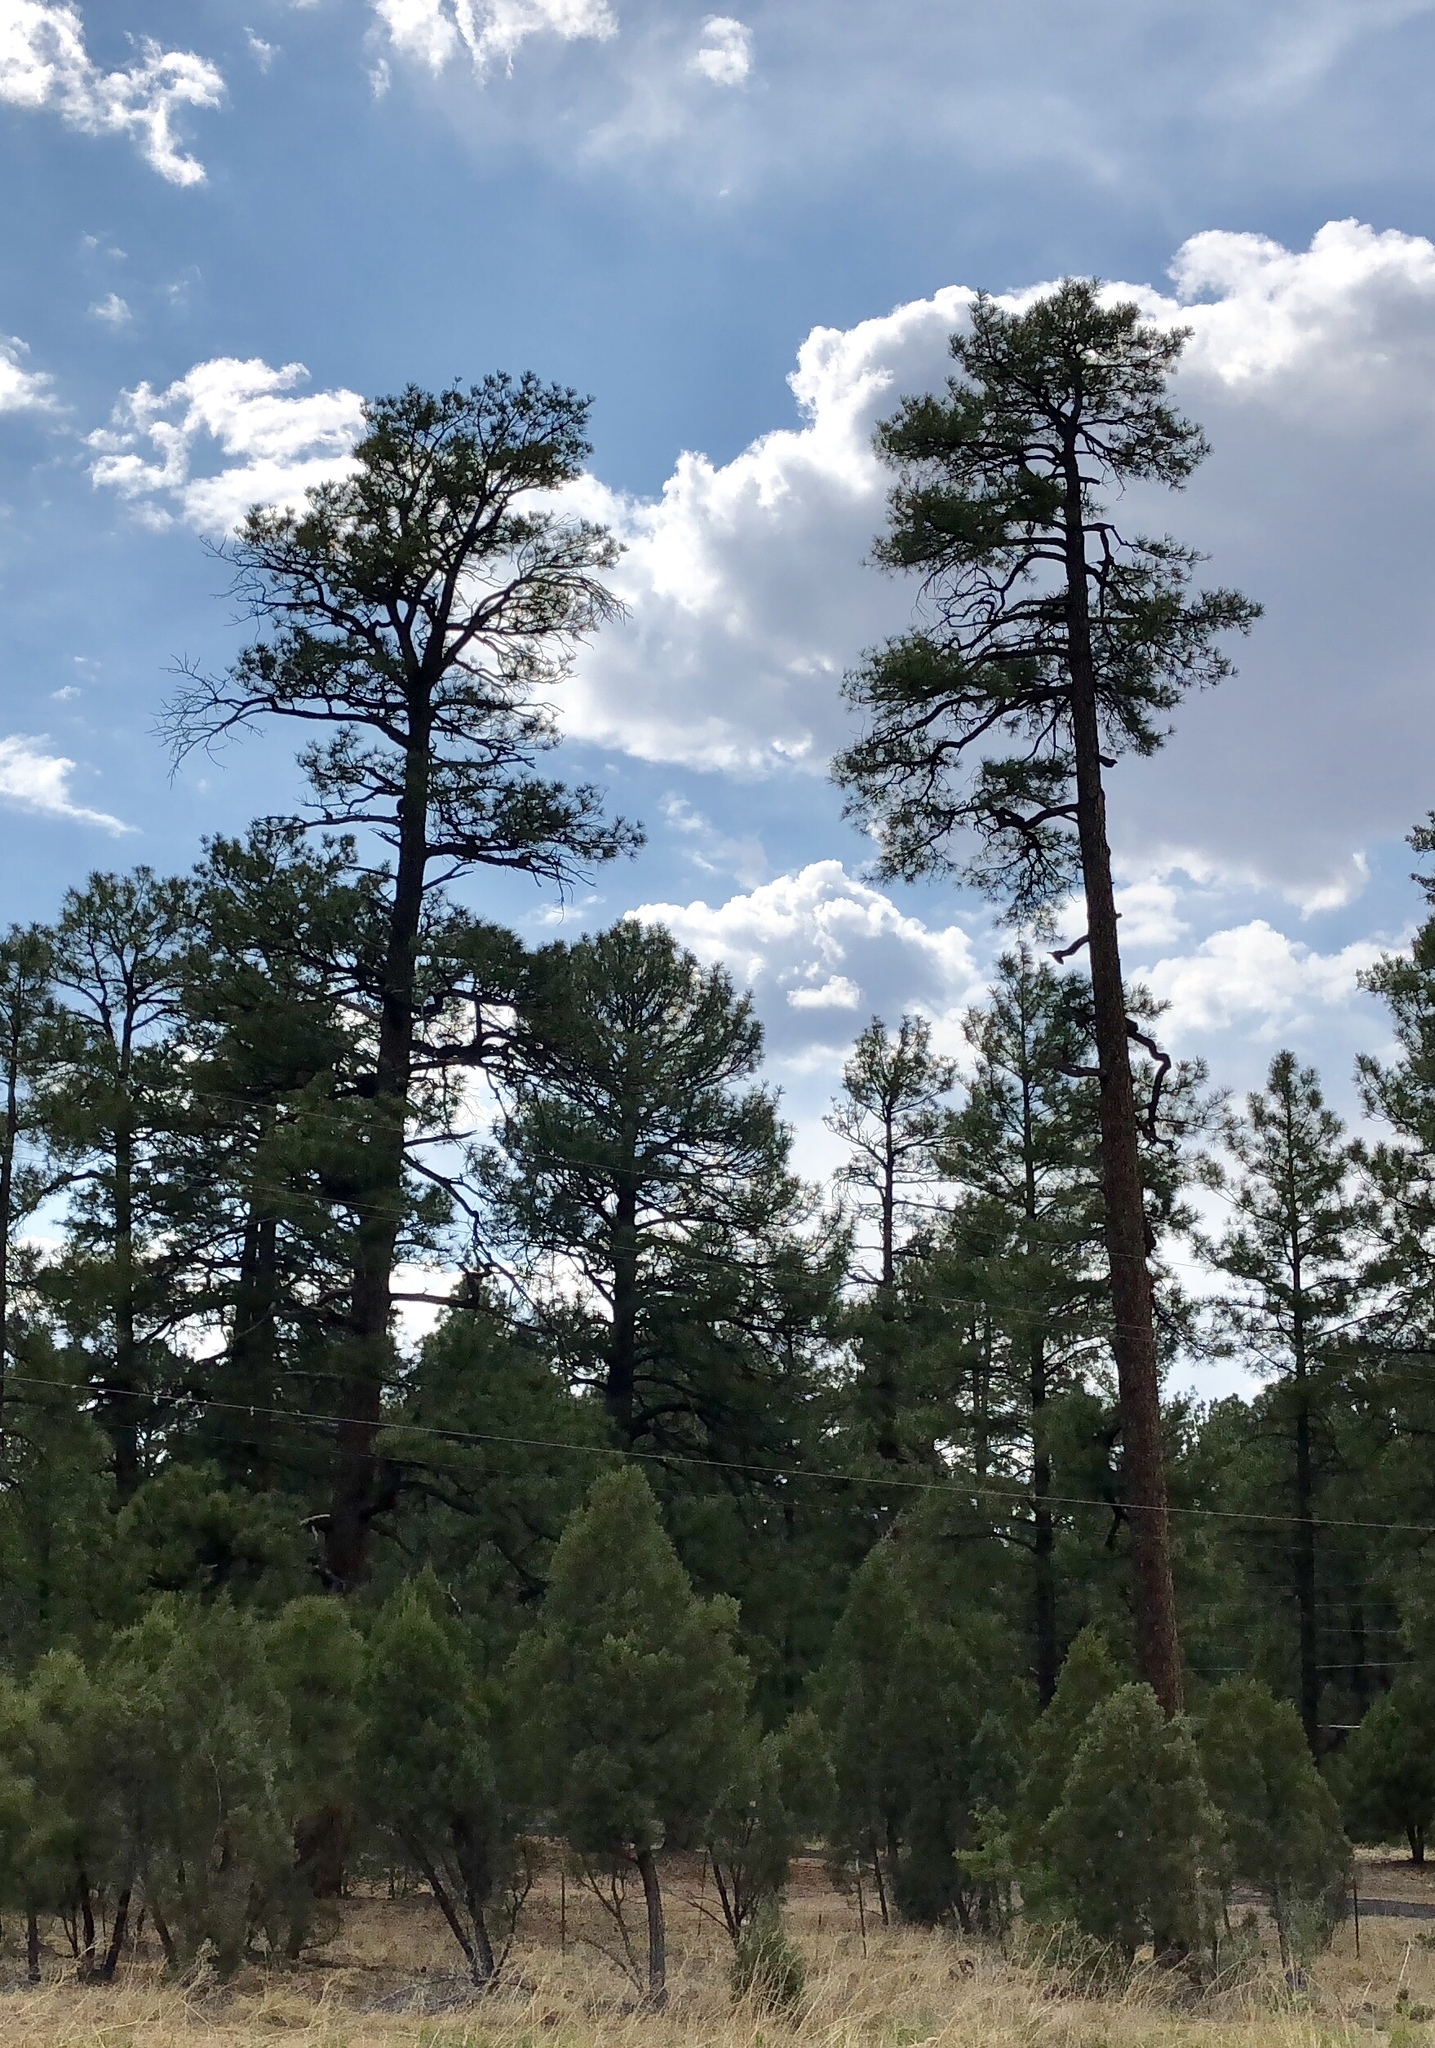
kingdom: Plantae
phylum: Tracheophyta
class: Pinopsida
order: Pinales
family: Pinaceae
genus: Pinus
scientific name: Pinus ponderosa
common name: Western yellow-pine
